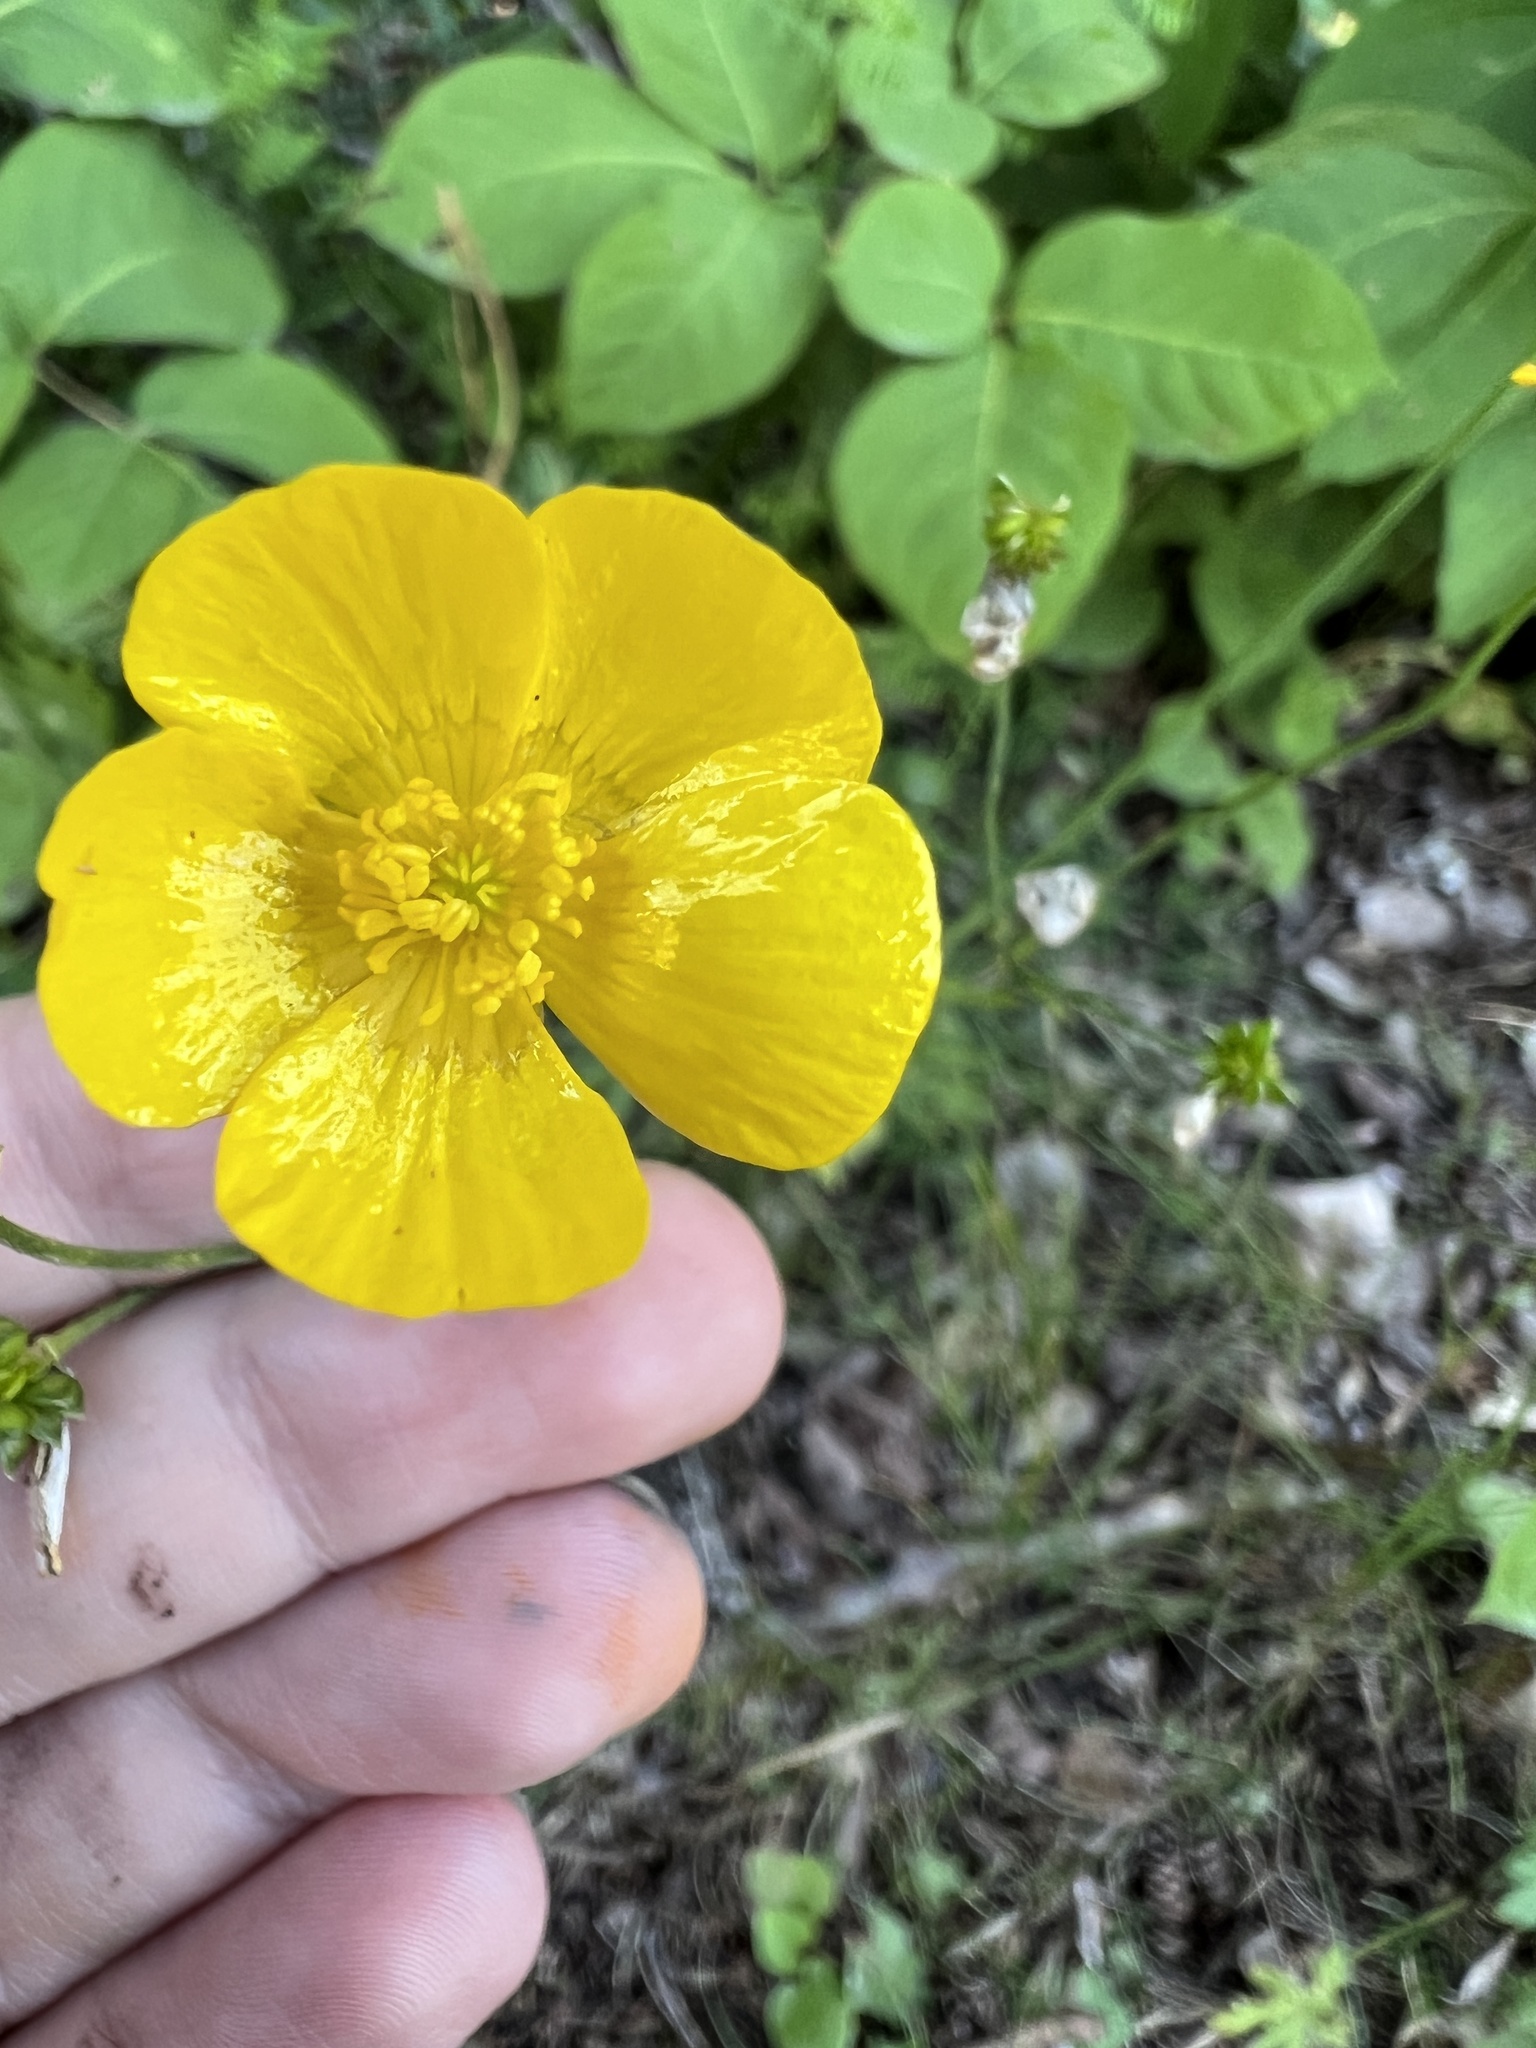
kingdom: Plantae
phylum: Tracheophyta
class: Magnoliopsida
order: Ranunculales
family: Ranunculaceae
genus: Ranunculus
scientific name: Ranunculus acris
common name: Meadow buttercup
